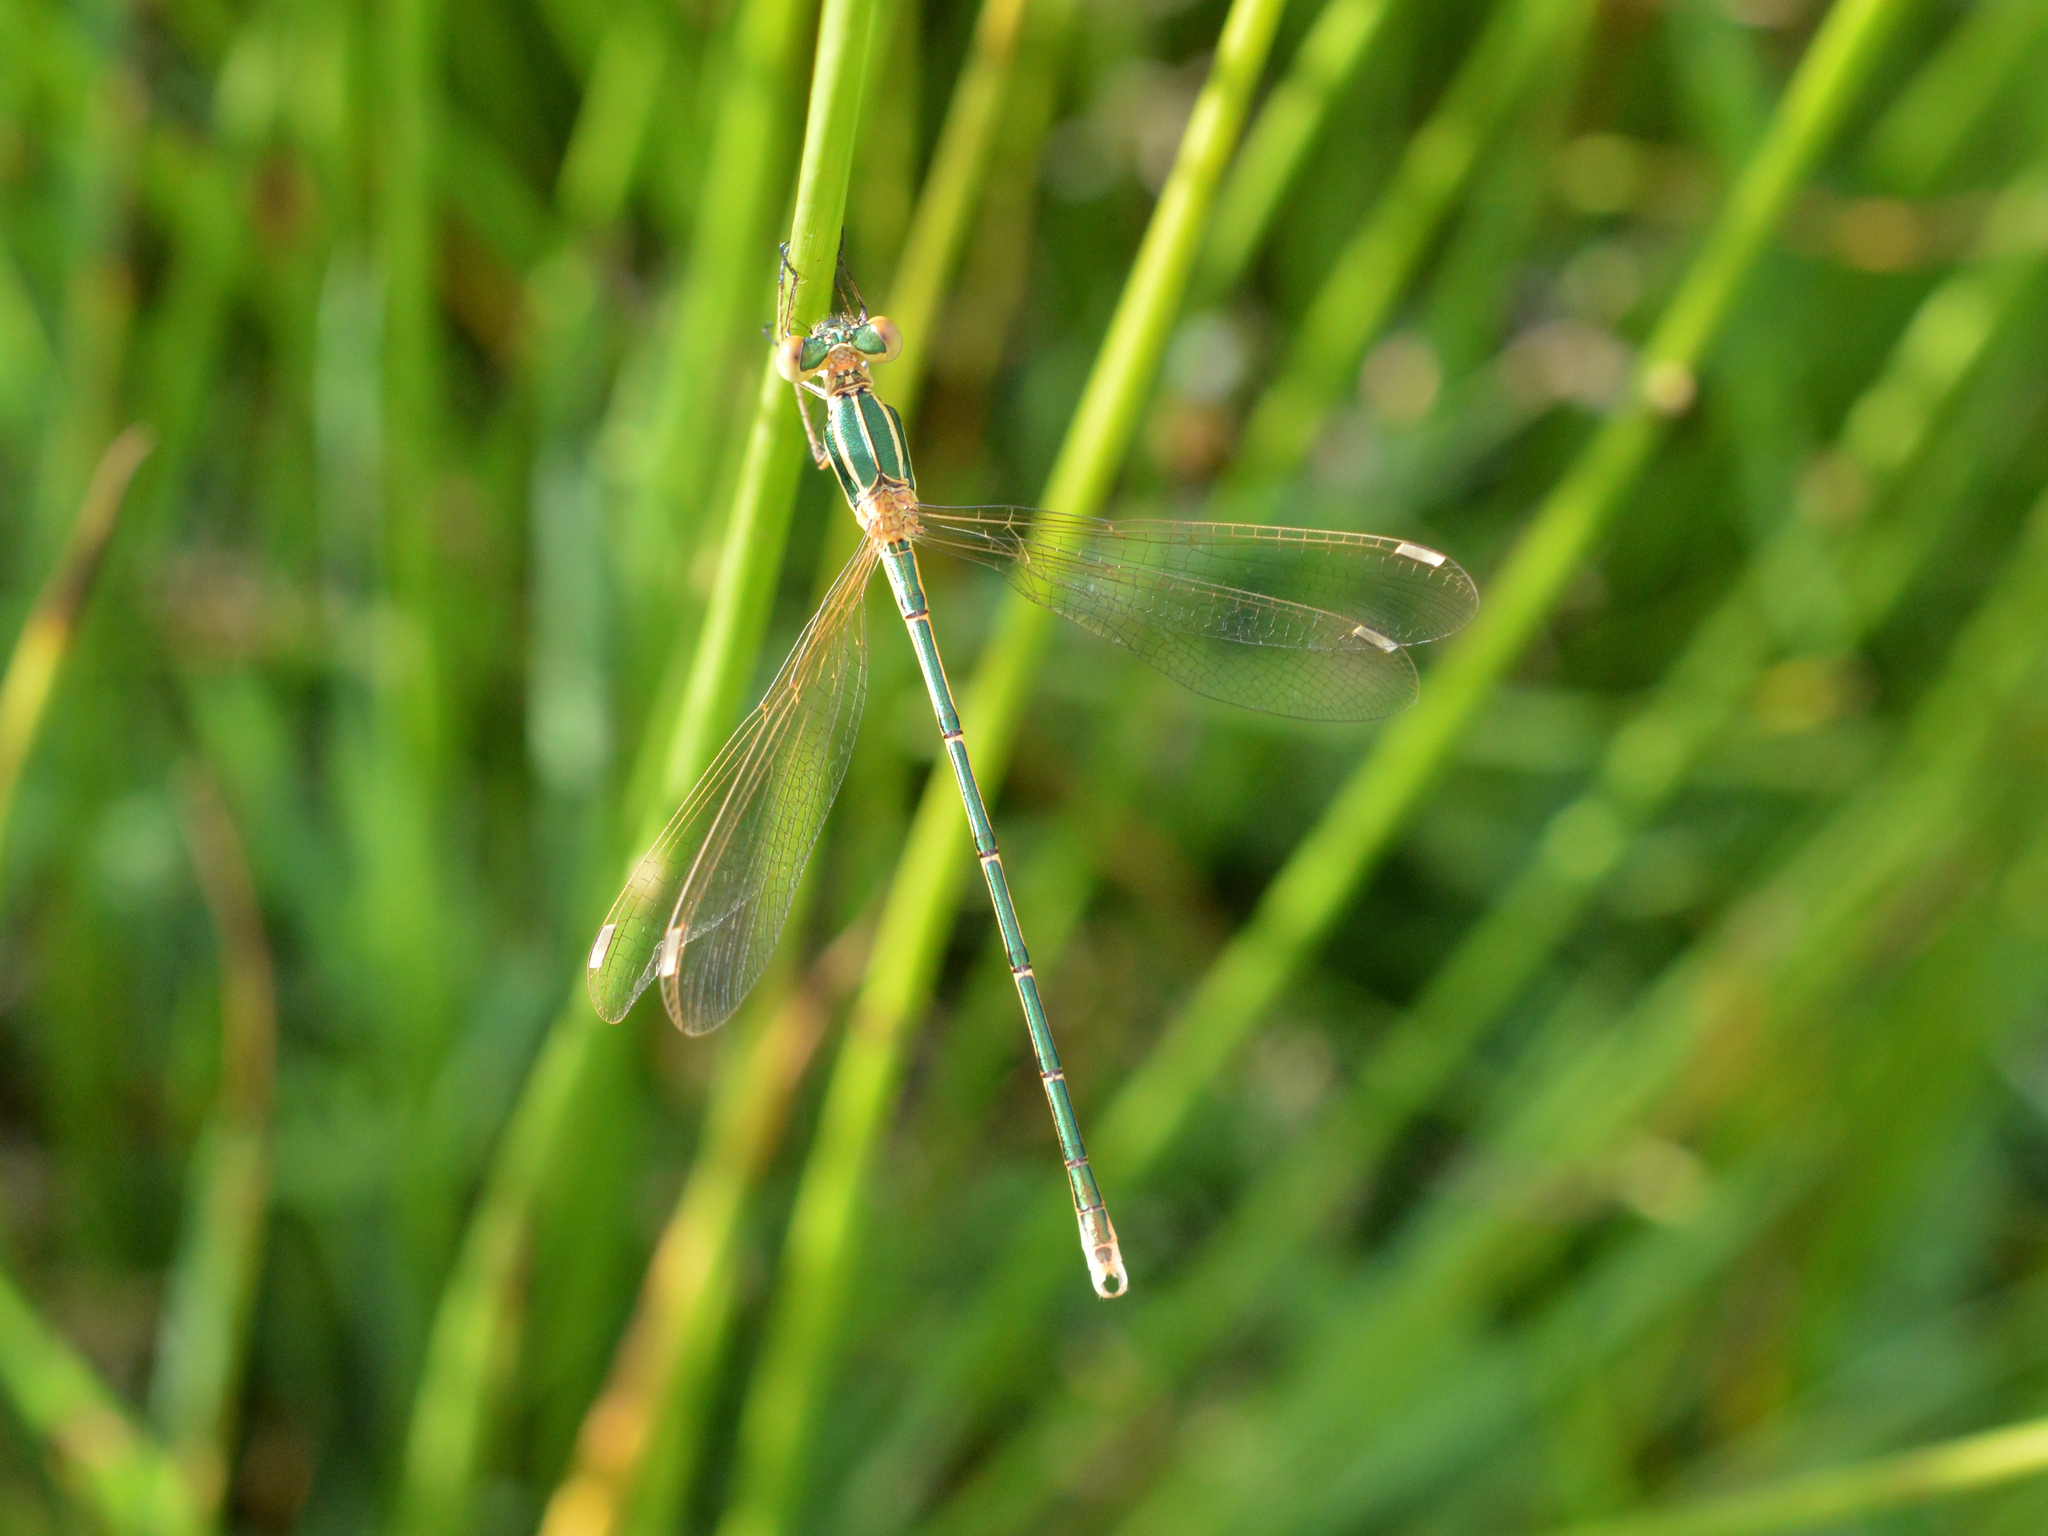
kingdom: Animalia
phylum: Arthropoda
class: Insecta
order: Odonata
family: Lestidae
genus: Lestes
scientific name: Lestes barbarus
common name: Migrant spreadwing
